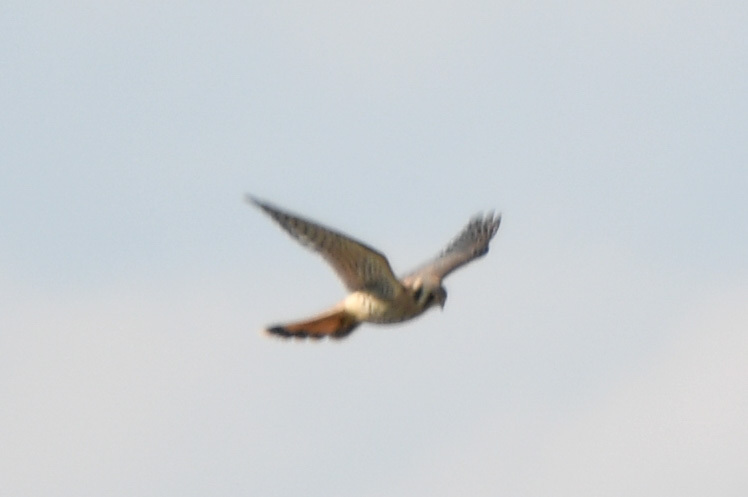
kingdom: Animalia
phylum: Chordata
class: Aves
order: Falconiformes
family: Falconidae
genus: Falco
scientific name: Falco sparverius
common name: American kestrel
